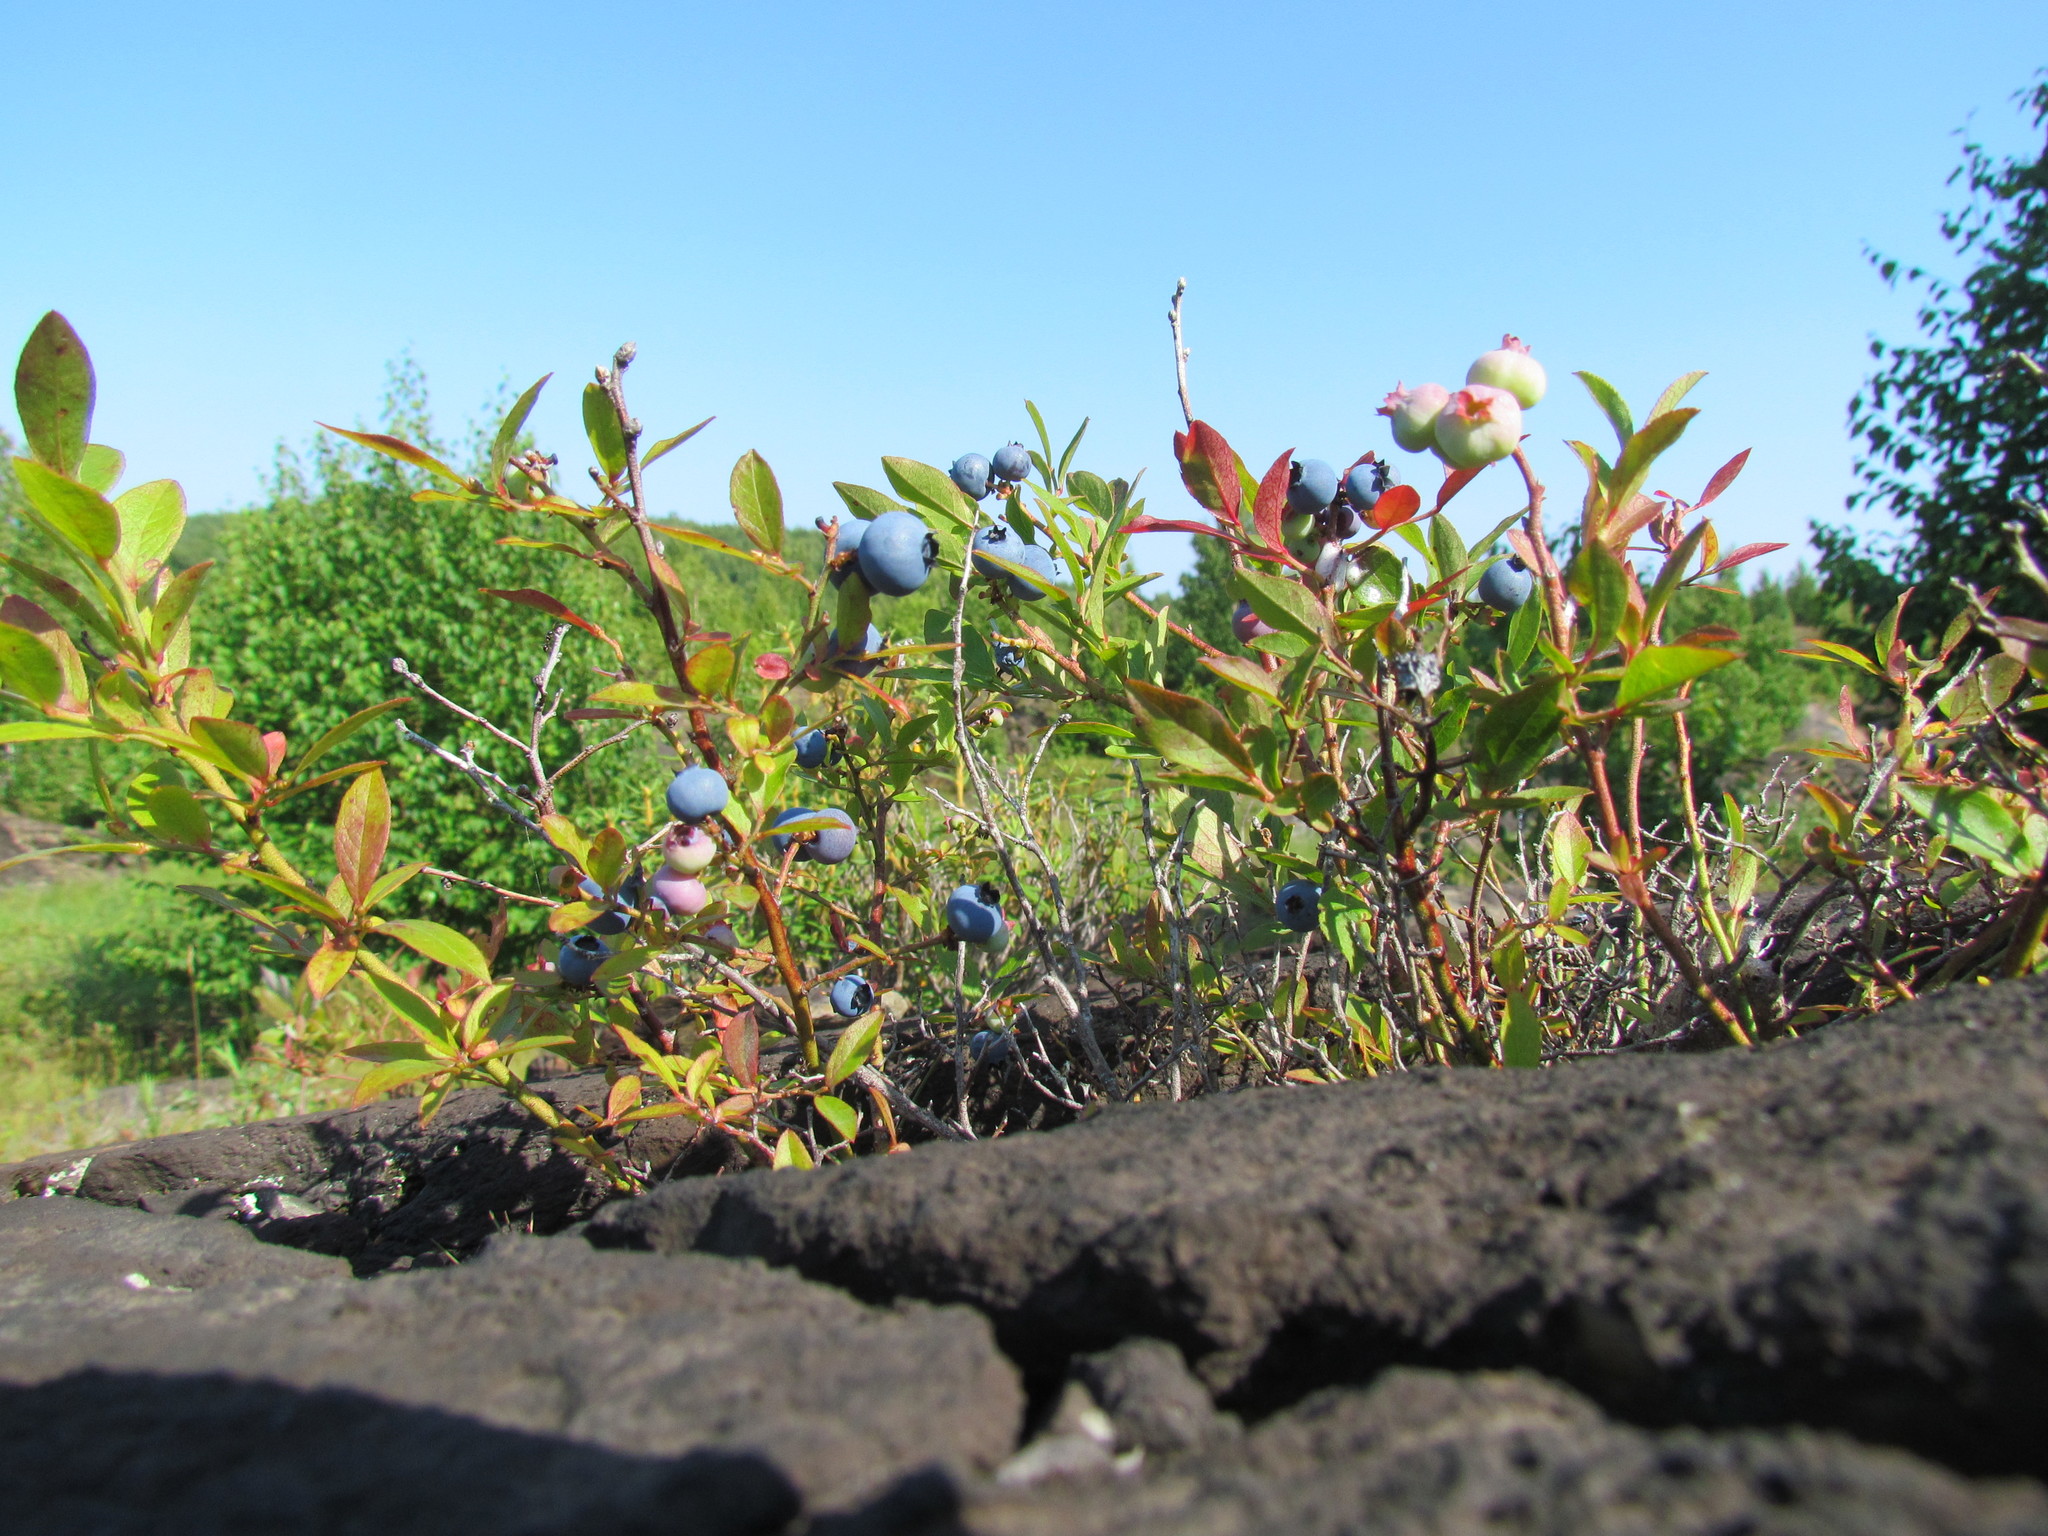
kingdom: Plantae
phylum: Tracheophyta
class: Magnoliopsida
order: Ericales
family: Ericaceae
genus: Vaccinium
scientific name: Vaccinium angustifolium
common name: Early lowbush blueberry
